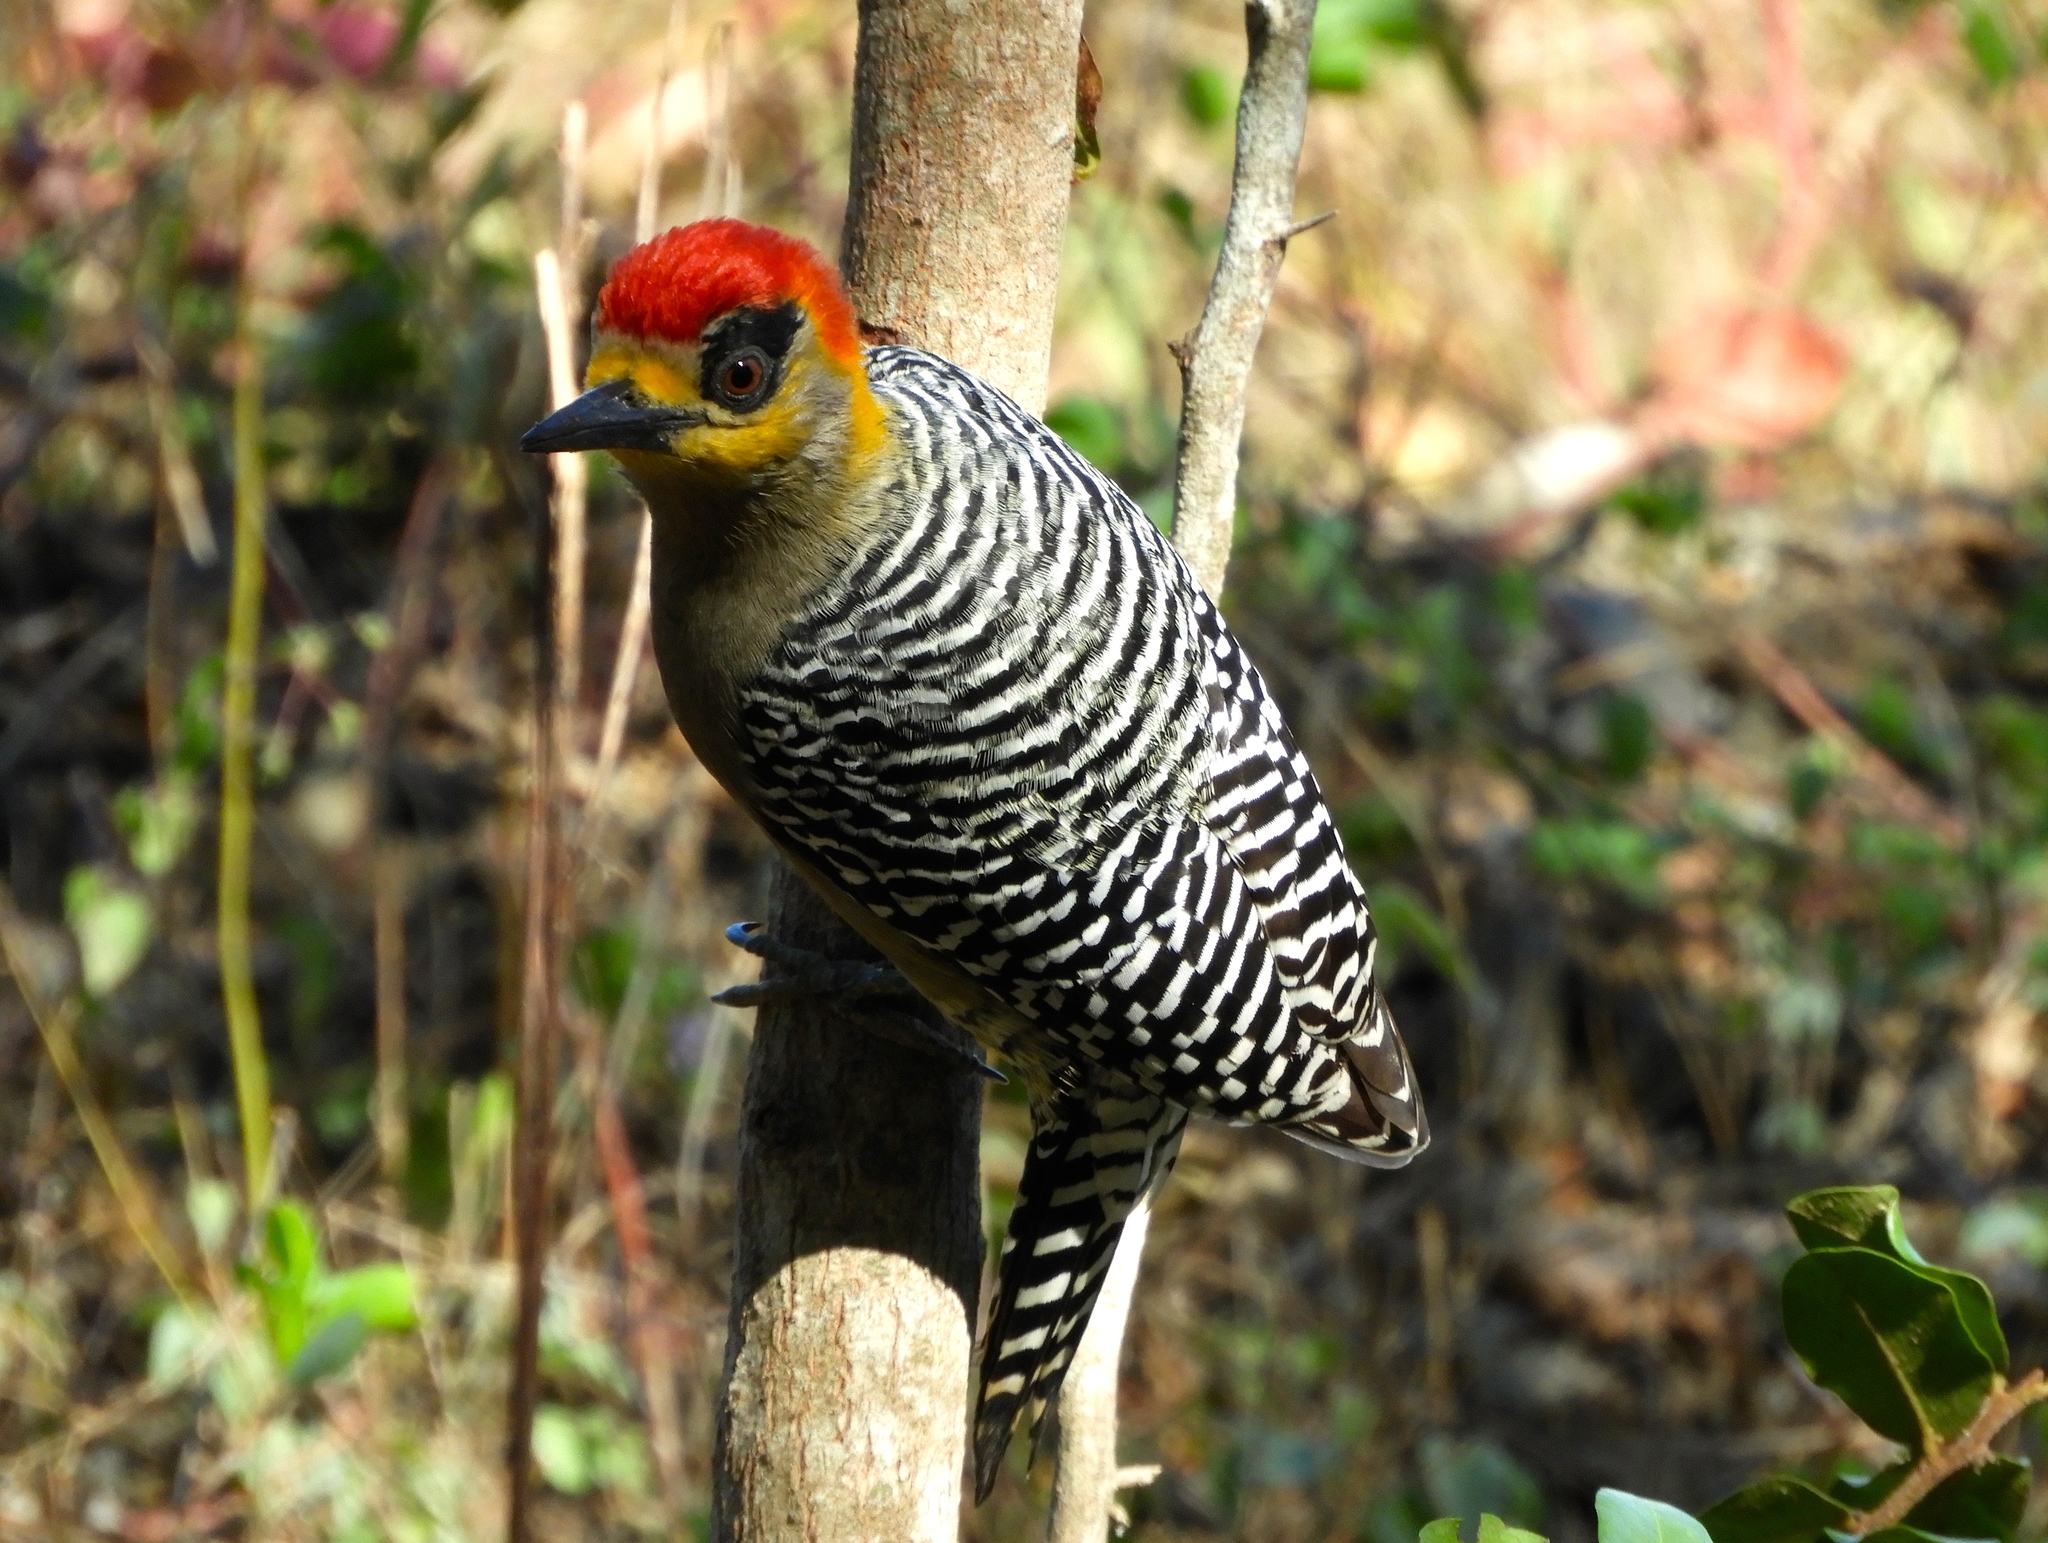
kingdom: Animalia
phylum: Chordata
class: Aves
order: Piciformes
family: Picidae
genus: Melanerpes
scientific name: Melanerpes chrysogenys
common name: Golden-cheeked woodpecker
